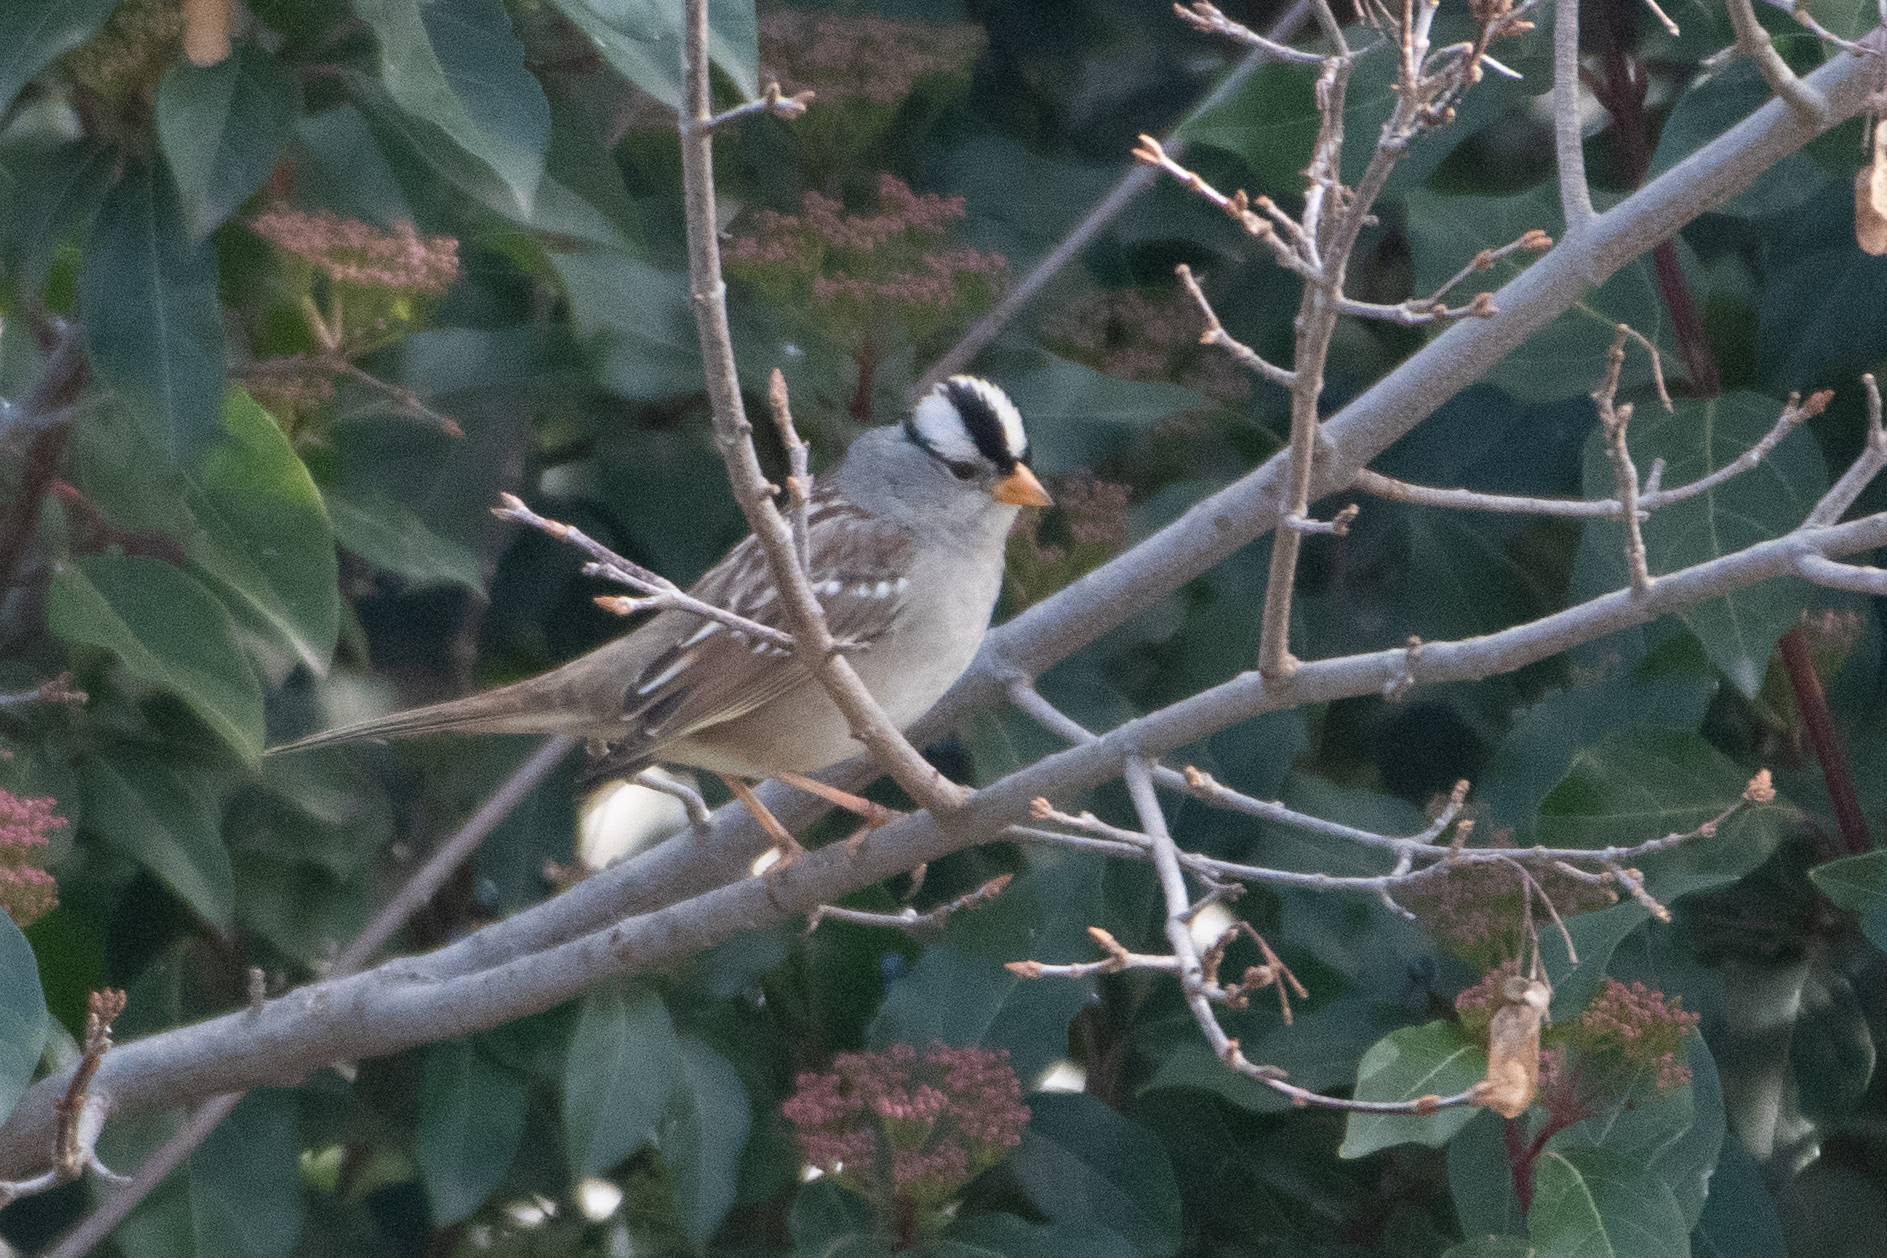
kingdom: Animalia
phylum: Chordata
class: Aves
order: Passeriformes
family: Passerellidae
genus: Zonotrichia
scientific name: Zonotrichia leucophrys
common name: White-crowned sparrow
